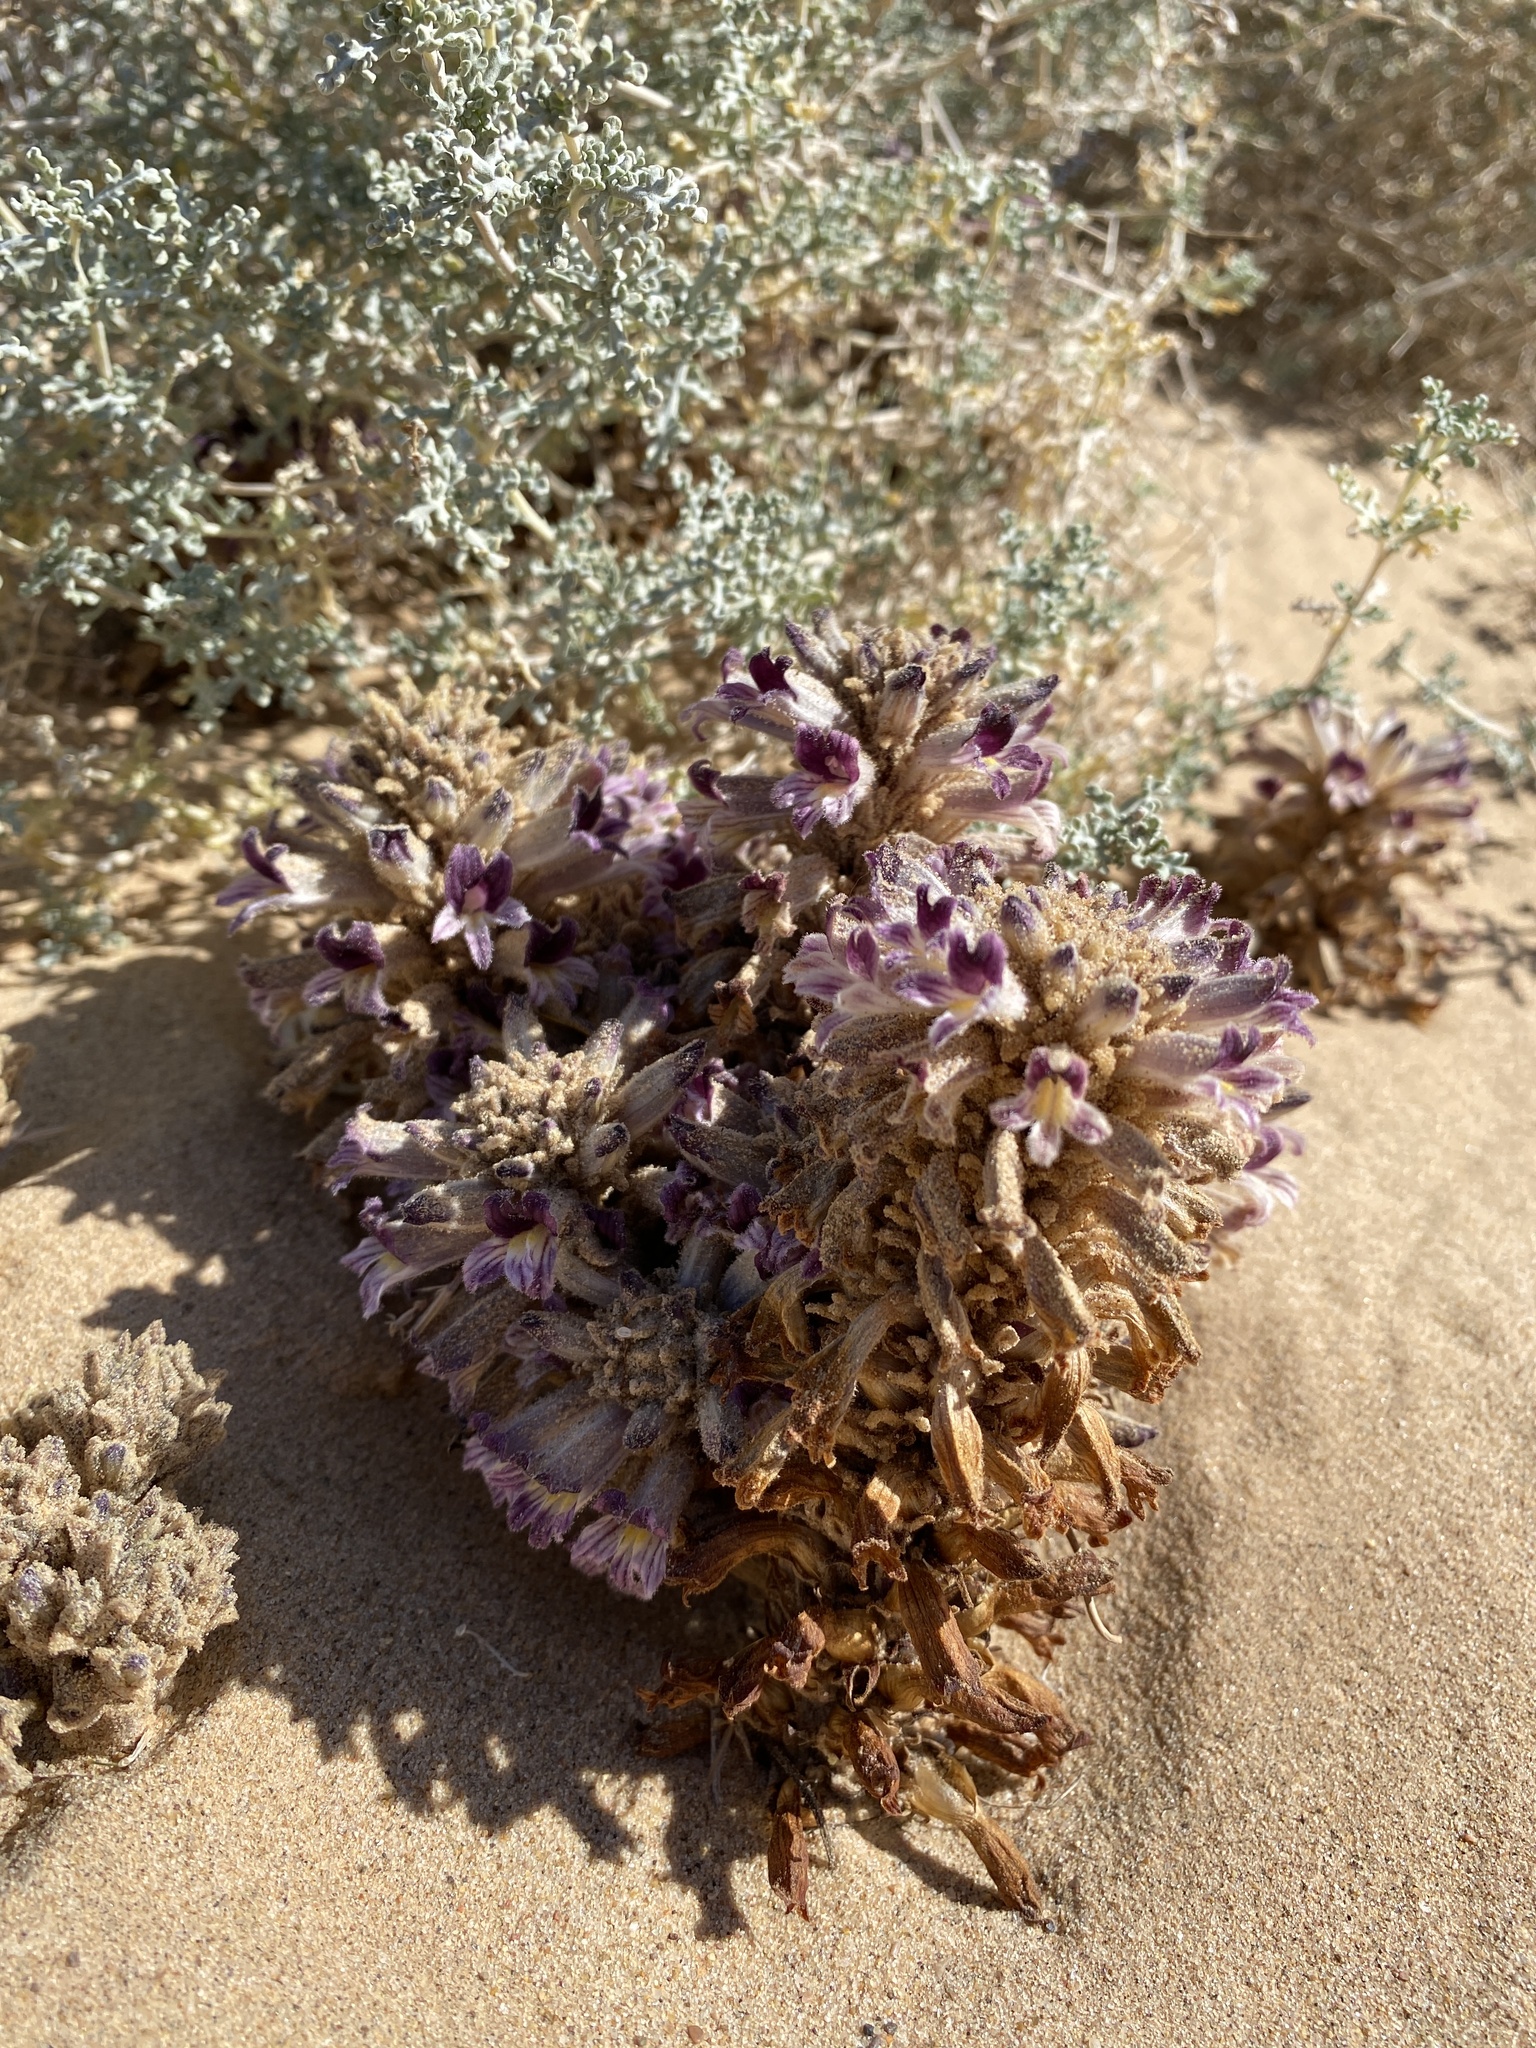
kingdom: Plantae
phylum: Tracheophyta
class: Magnoliopsida
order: Lamiales
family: Orobanchaceae
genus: Aphyllon
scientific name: Aphyllon cooperi
